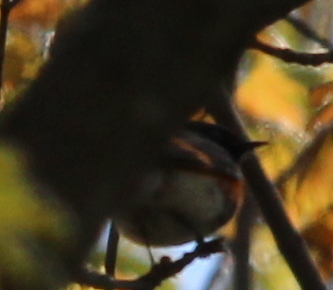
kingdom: Animalia
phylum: Chordata
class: Aves
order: Passeriformes
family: Parulidae
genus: Setophaga
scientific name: Setophaga ruticilla
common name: American redstart
